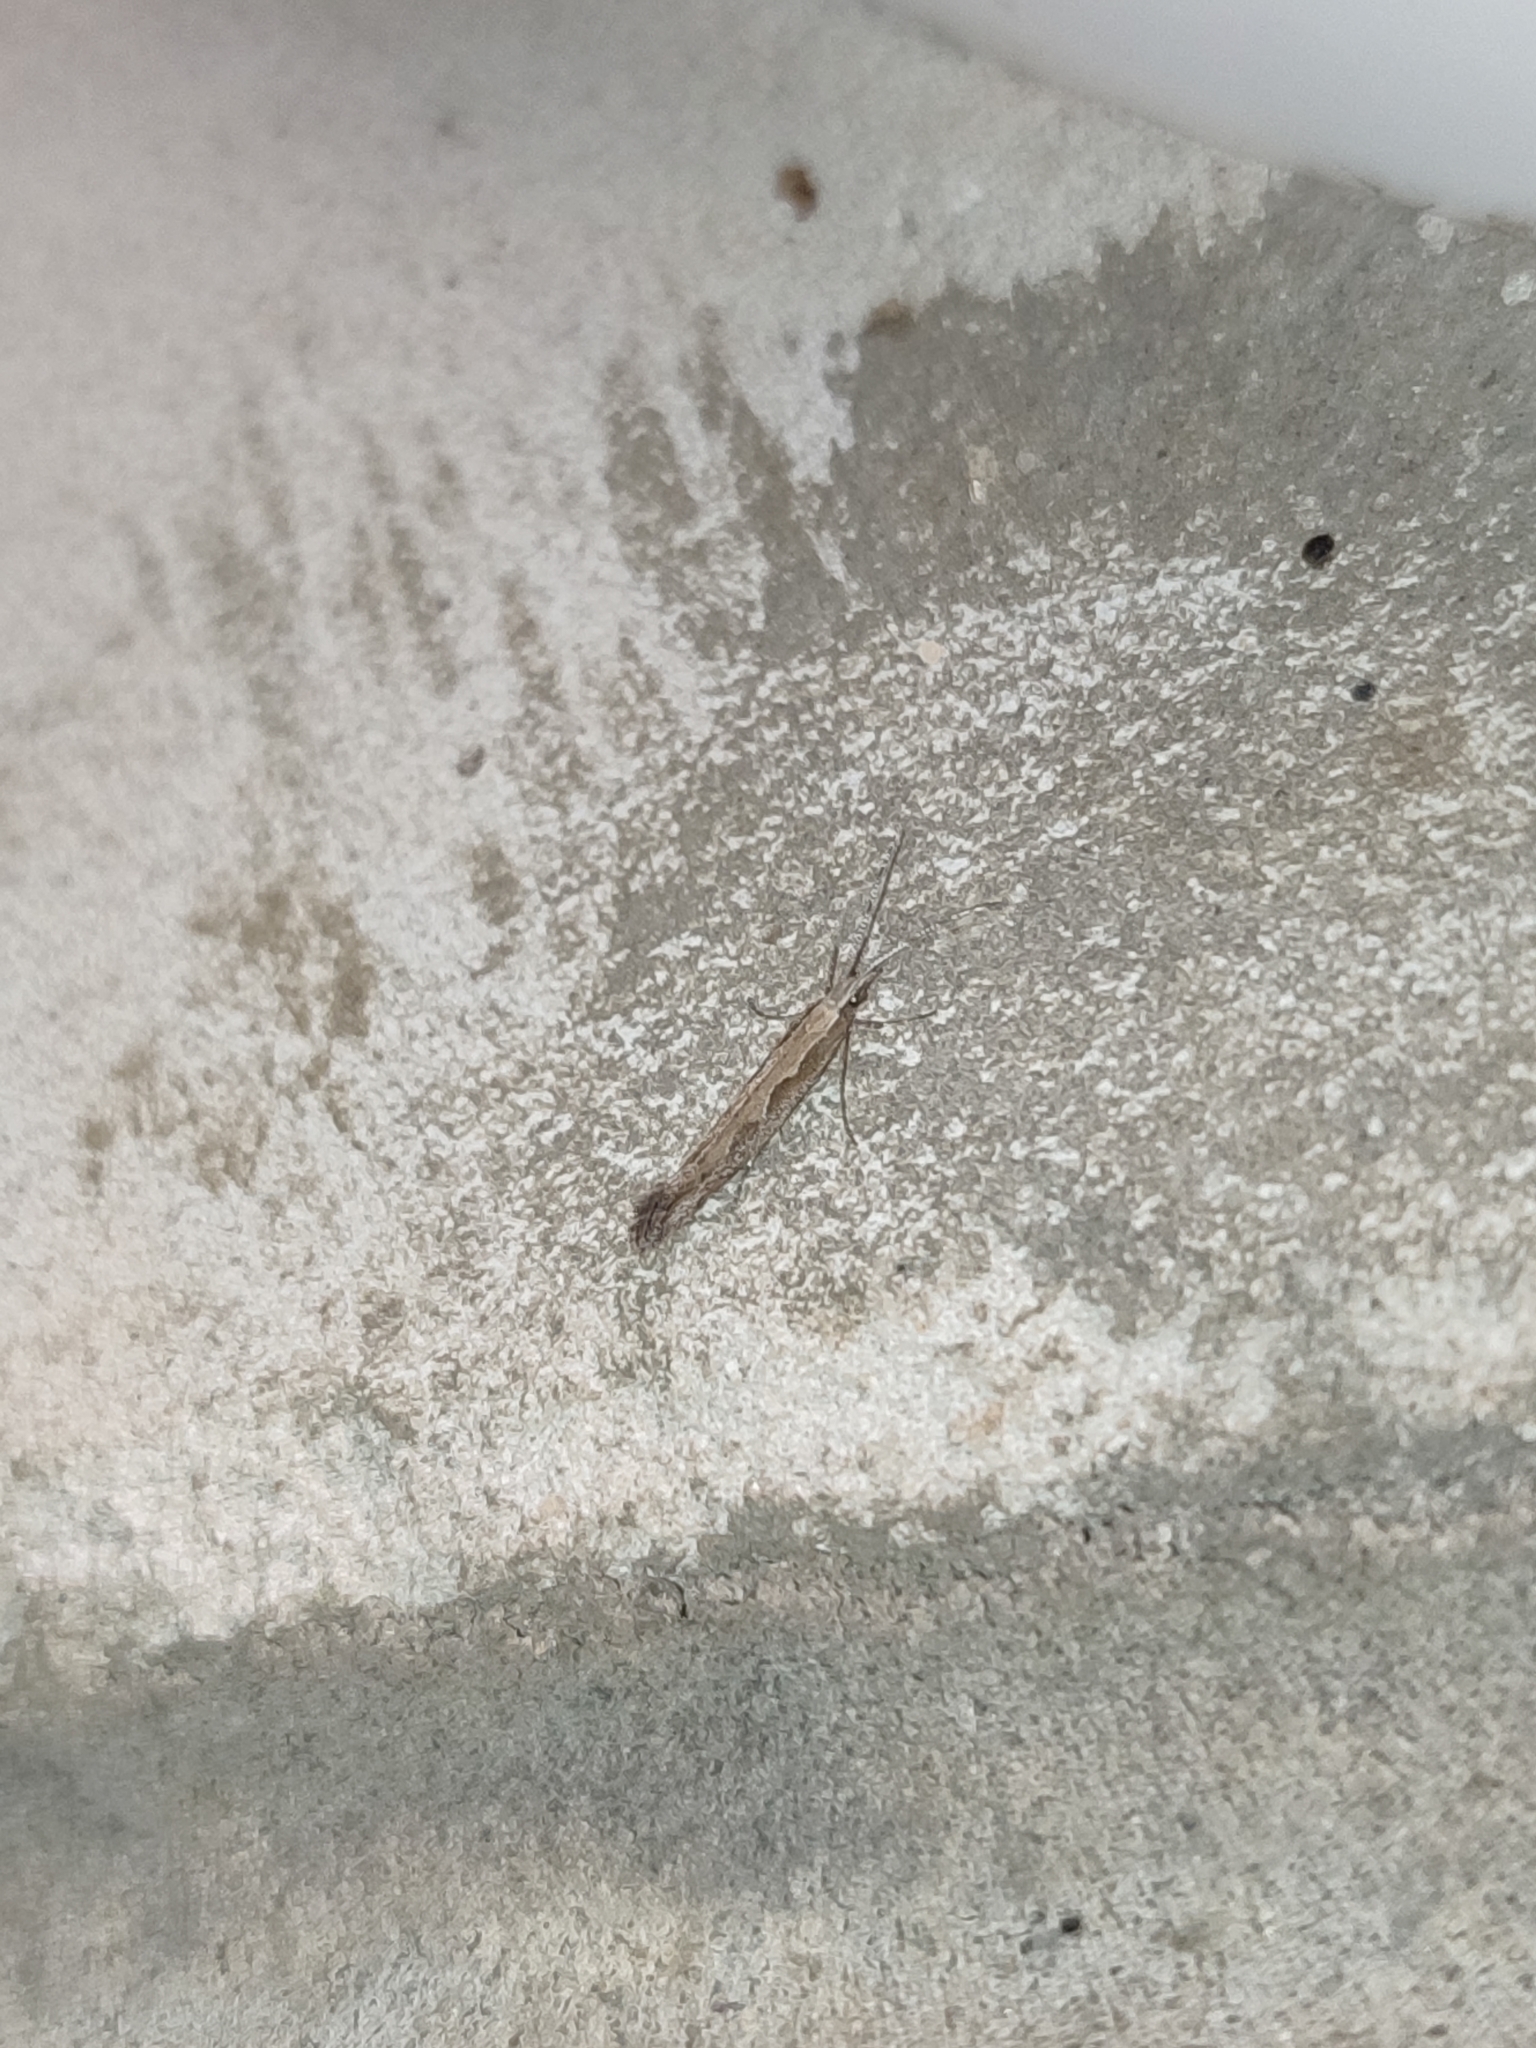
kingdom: Animalia
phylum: Arthropoda
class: Insecta
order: Lepidoptera
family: Plutellidae
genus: Plutella
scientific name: Plutella xylostella
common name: Diamond-back moth
